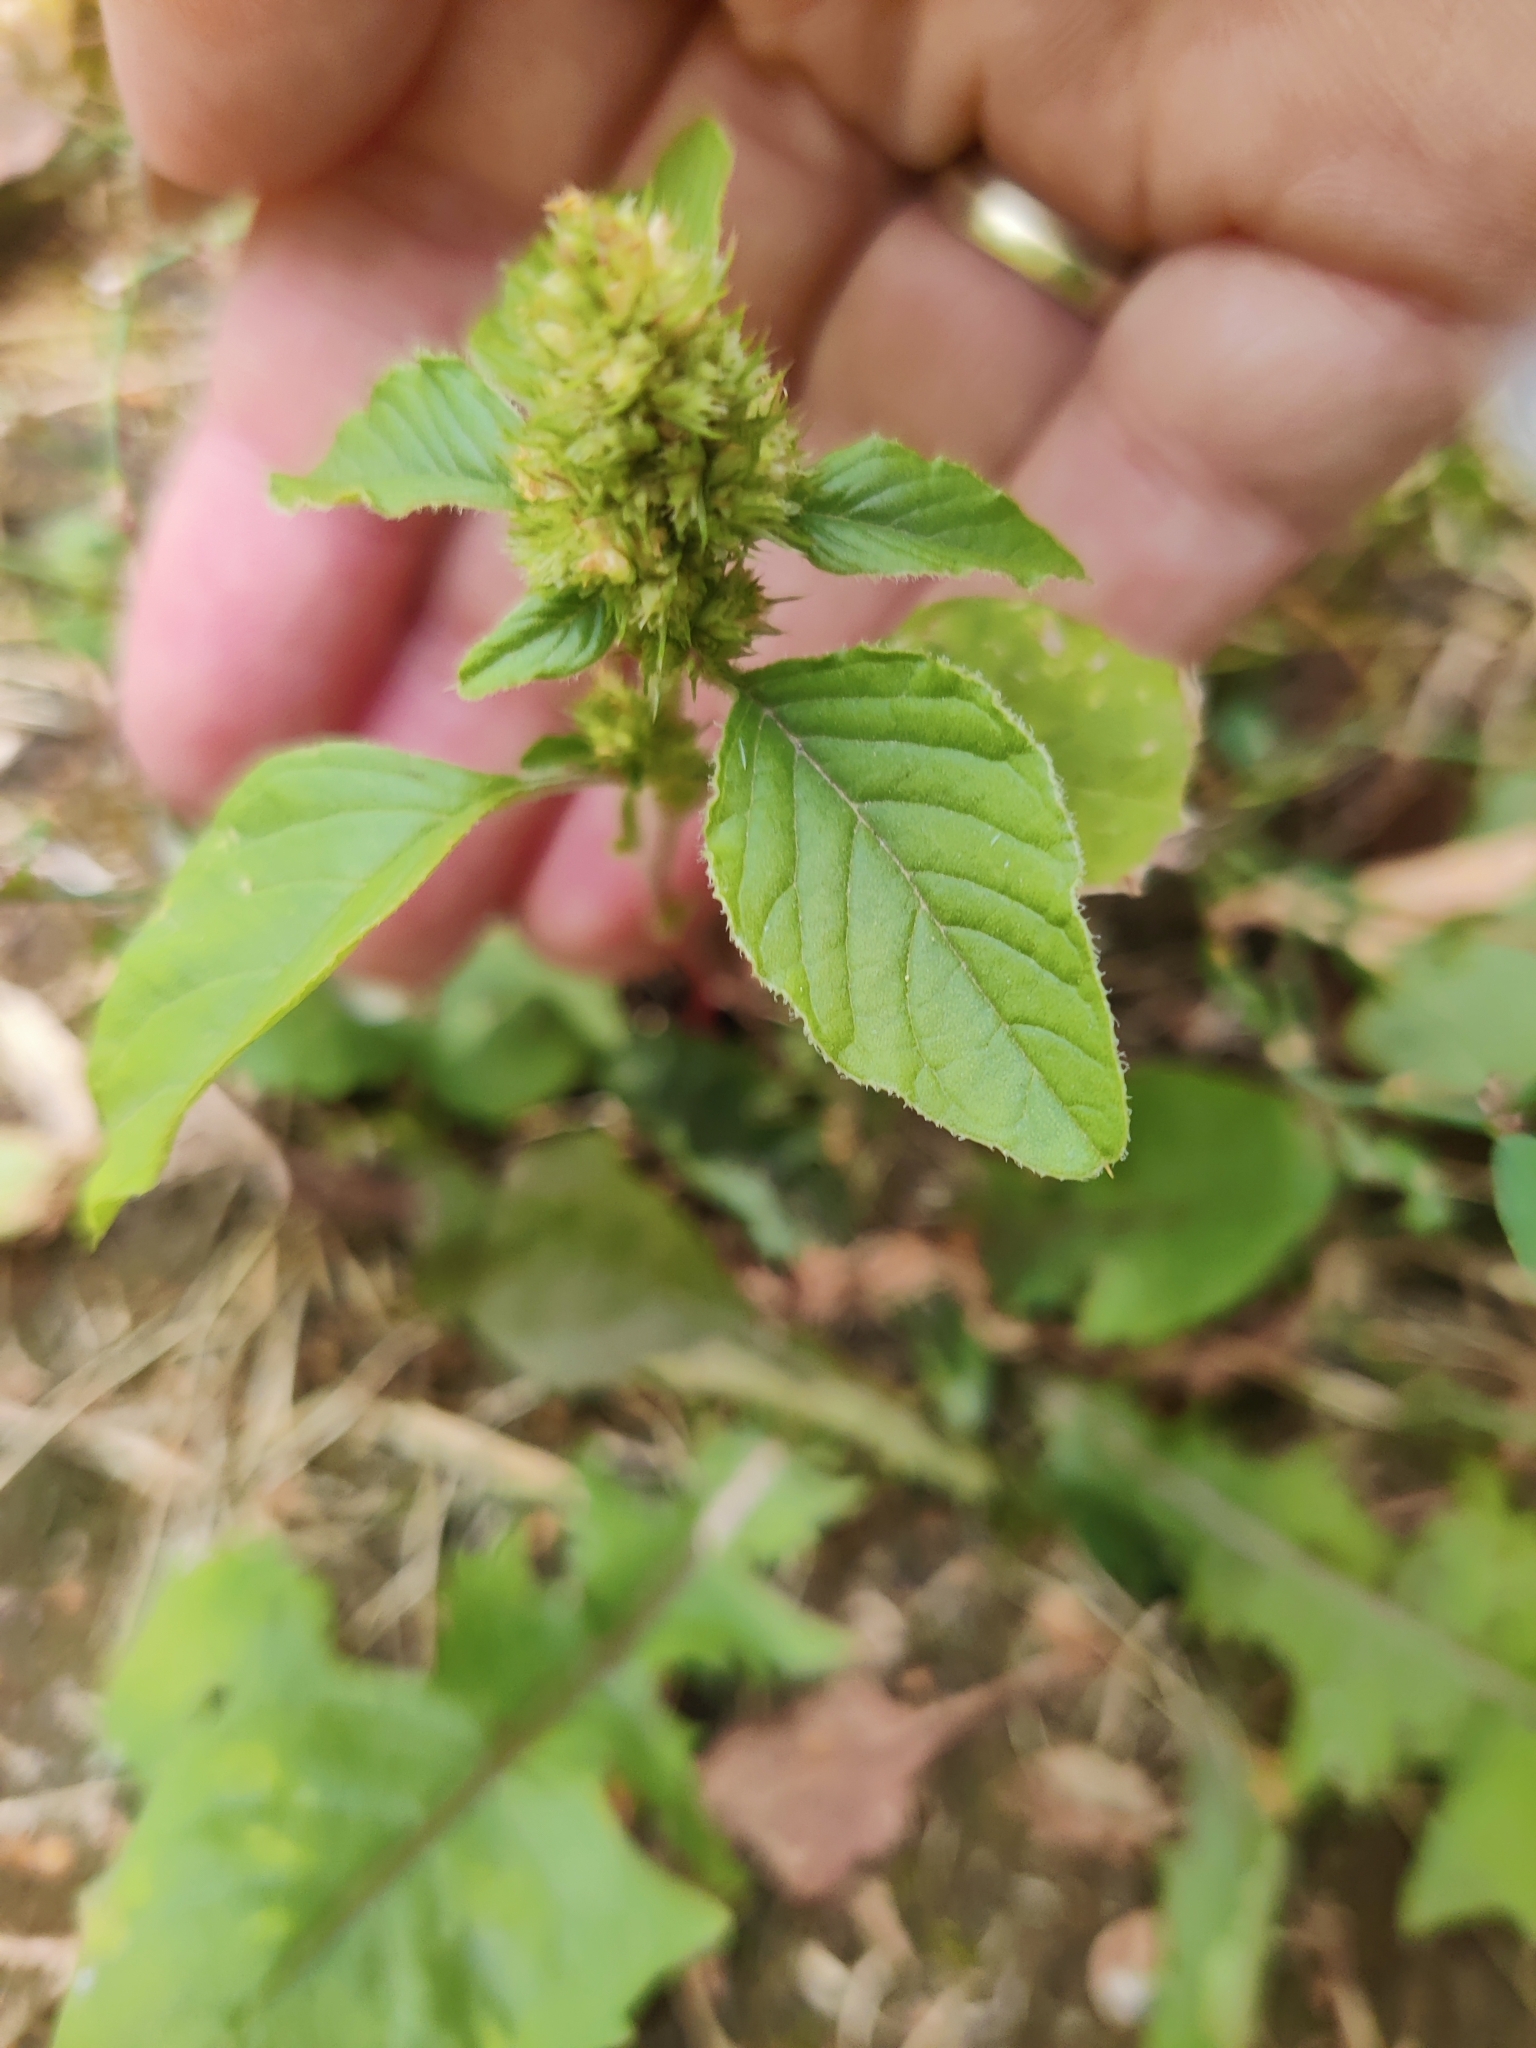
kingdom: Plantae
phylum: Tracheophyta
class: Magnoliopsida
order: Caryophyllales
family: Amaranthaceae
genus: Amaranthus
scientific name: Amaranthus retroflexus
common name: Redroot amaranth
